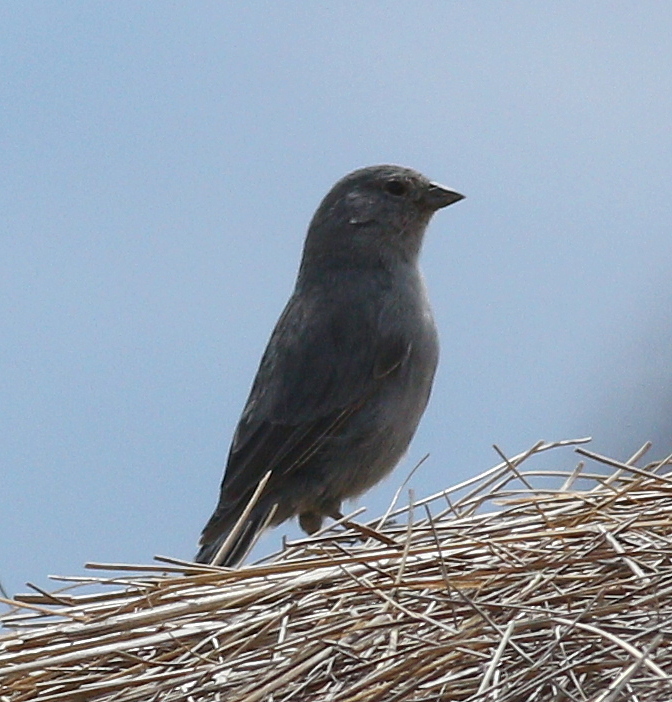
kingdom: Animalia
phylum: Chordata
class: Aves
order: Passeriformes
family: Thraupidae
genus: Geospizopsis
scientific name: Geospizopsis unicolor
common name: Plumbeous sierra-finch
